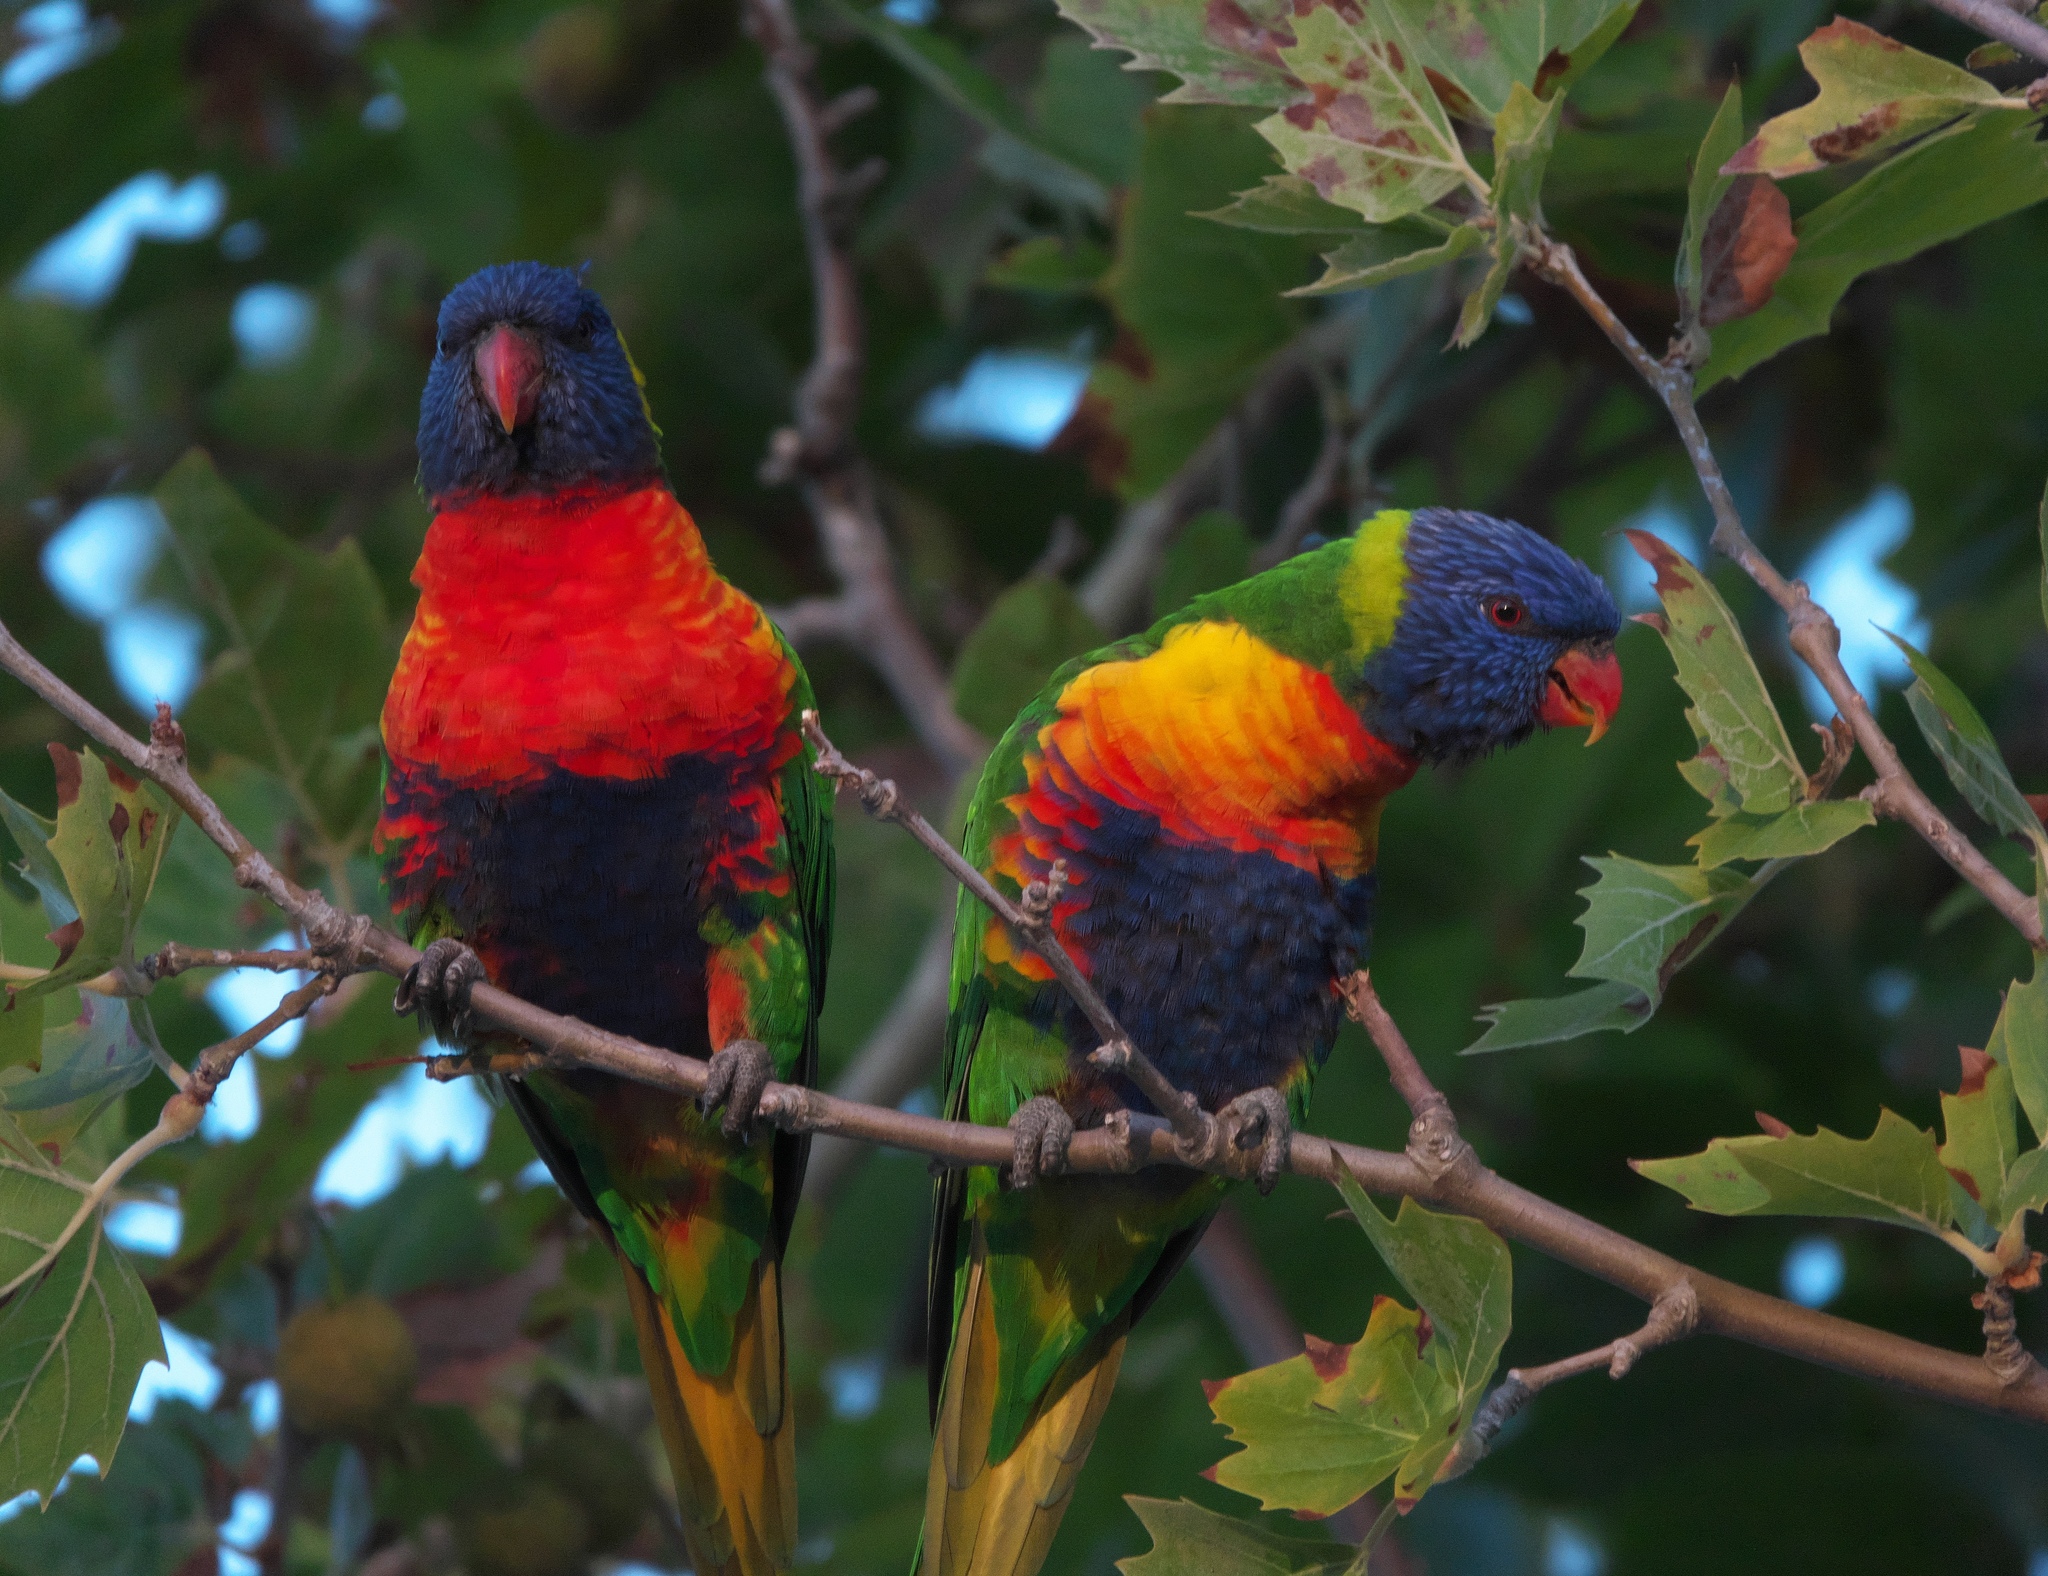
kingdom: Animalia
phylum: Chordata
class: Aves
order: Psittaciformes
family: Psittacidae
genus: Trichoglossus
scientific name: Trichoglossus haematodus
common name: Coconut lorikeet
